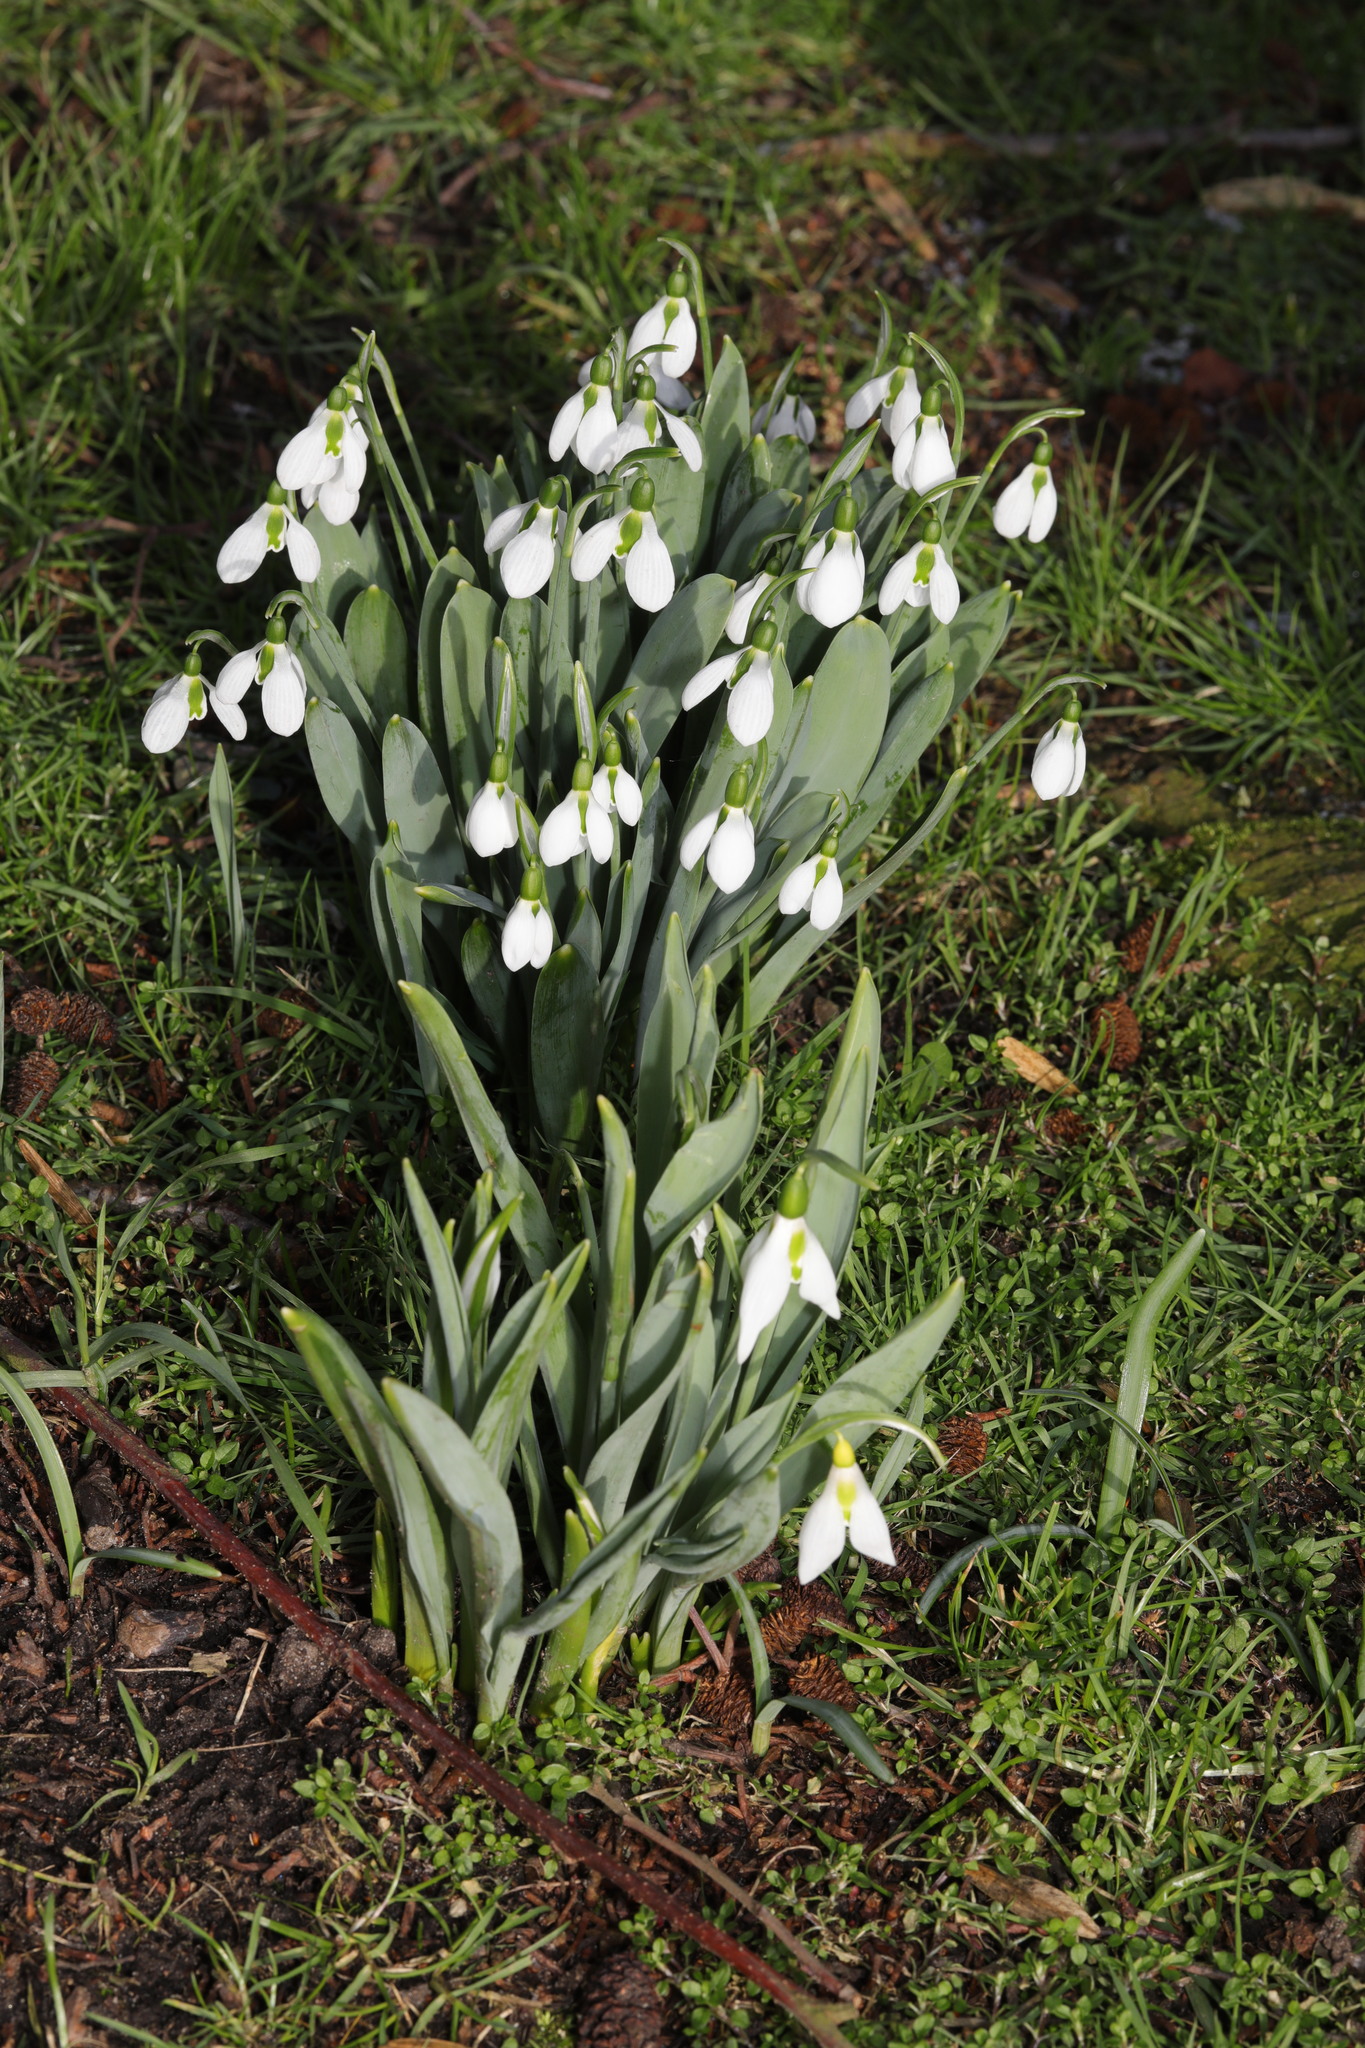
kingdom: Plantae
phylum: Tracheophyta
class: Liliopsida
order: Asparagales
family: Amaryllidaceae
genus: Galanthus
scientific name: Galanthus elwesii
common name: Greater snowdrop
